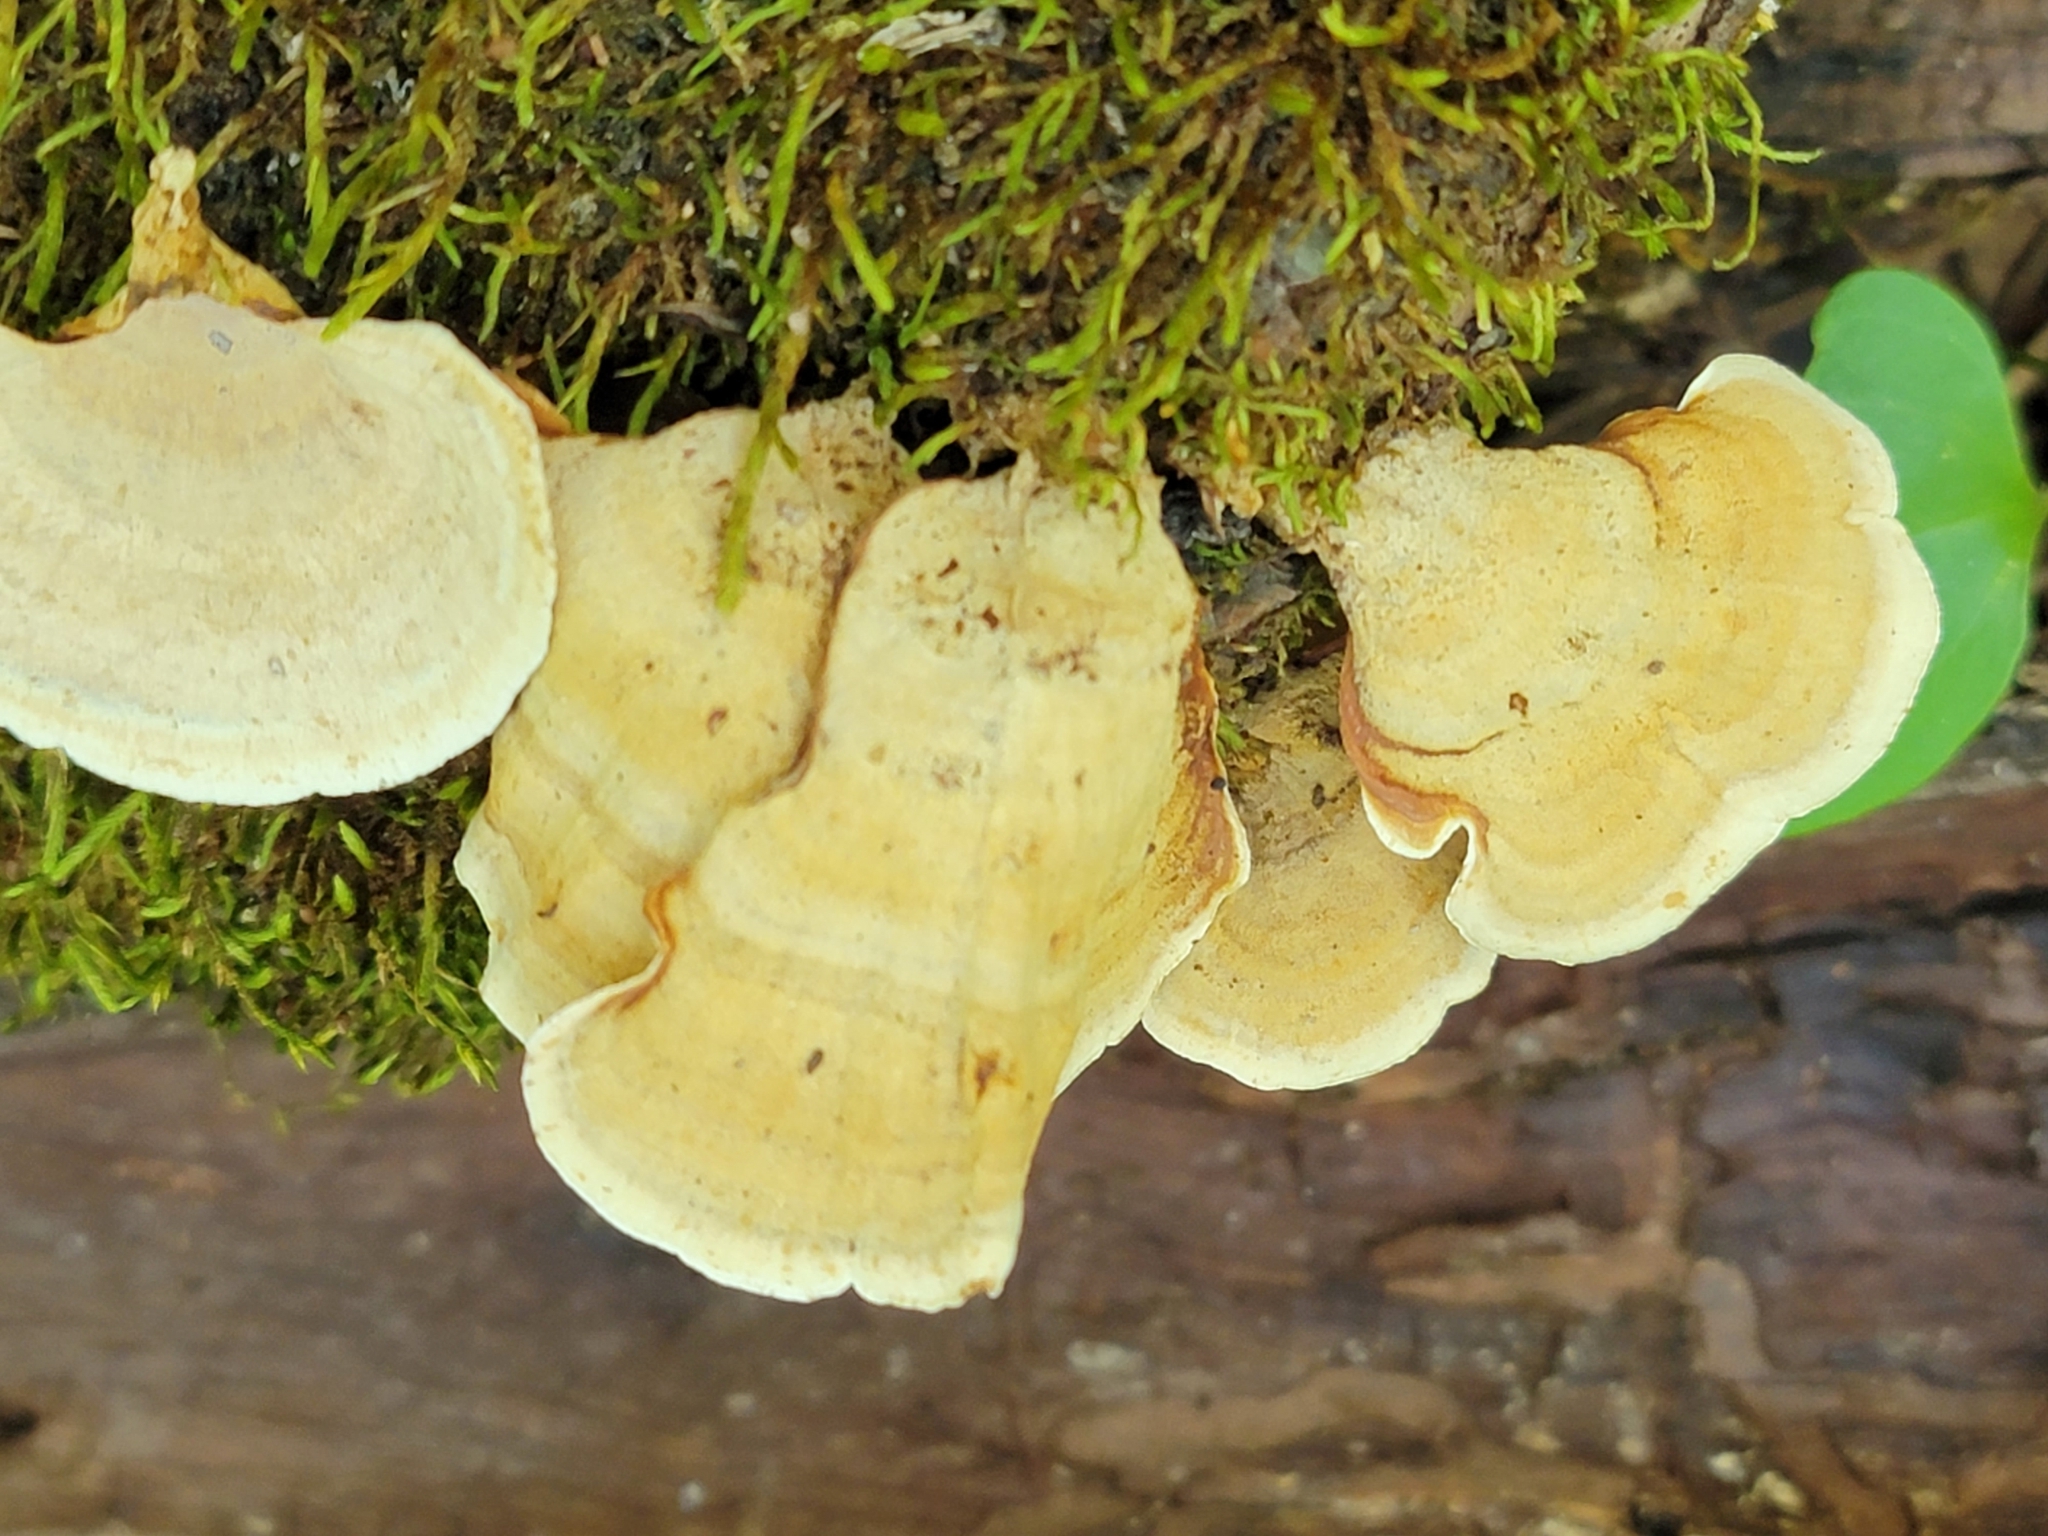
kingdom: Fungi
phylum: Basidiomycota
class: Agaricomycetes
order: Russulales
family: Stereaceae
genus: Stereum
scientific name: Stereum lobatum
